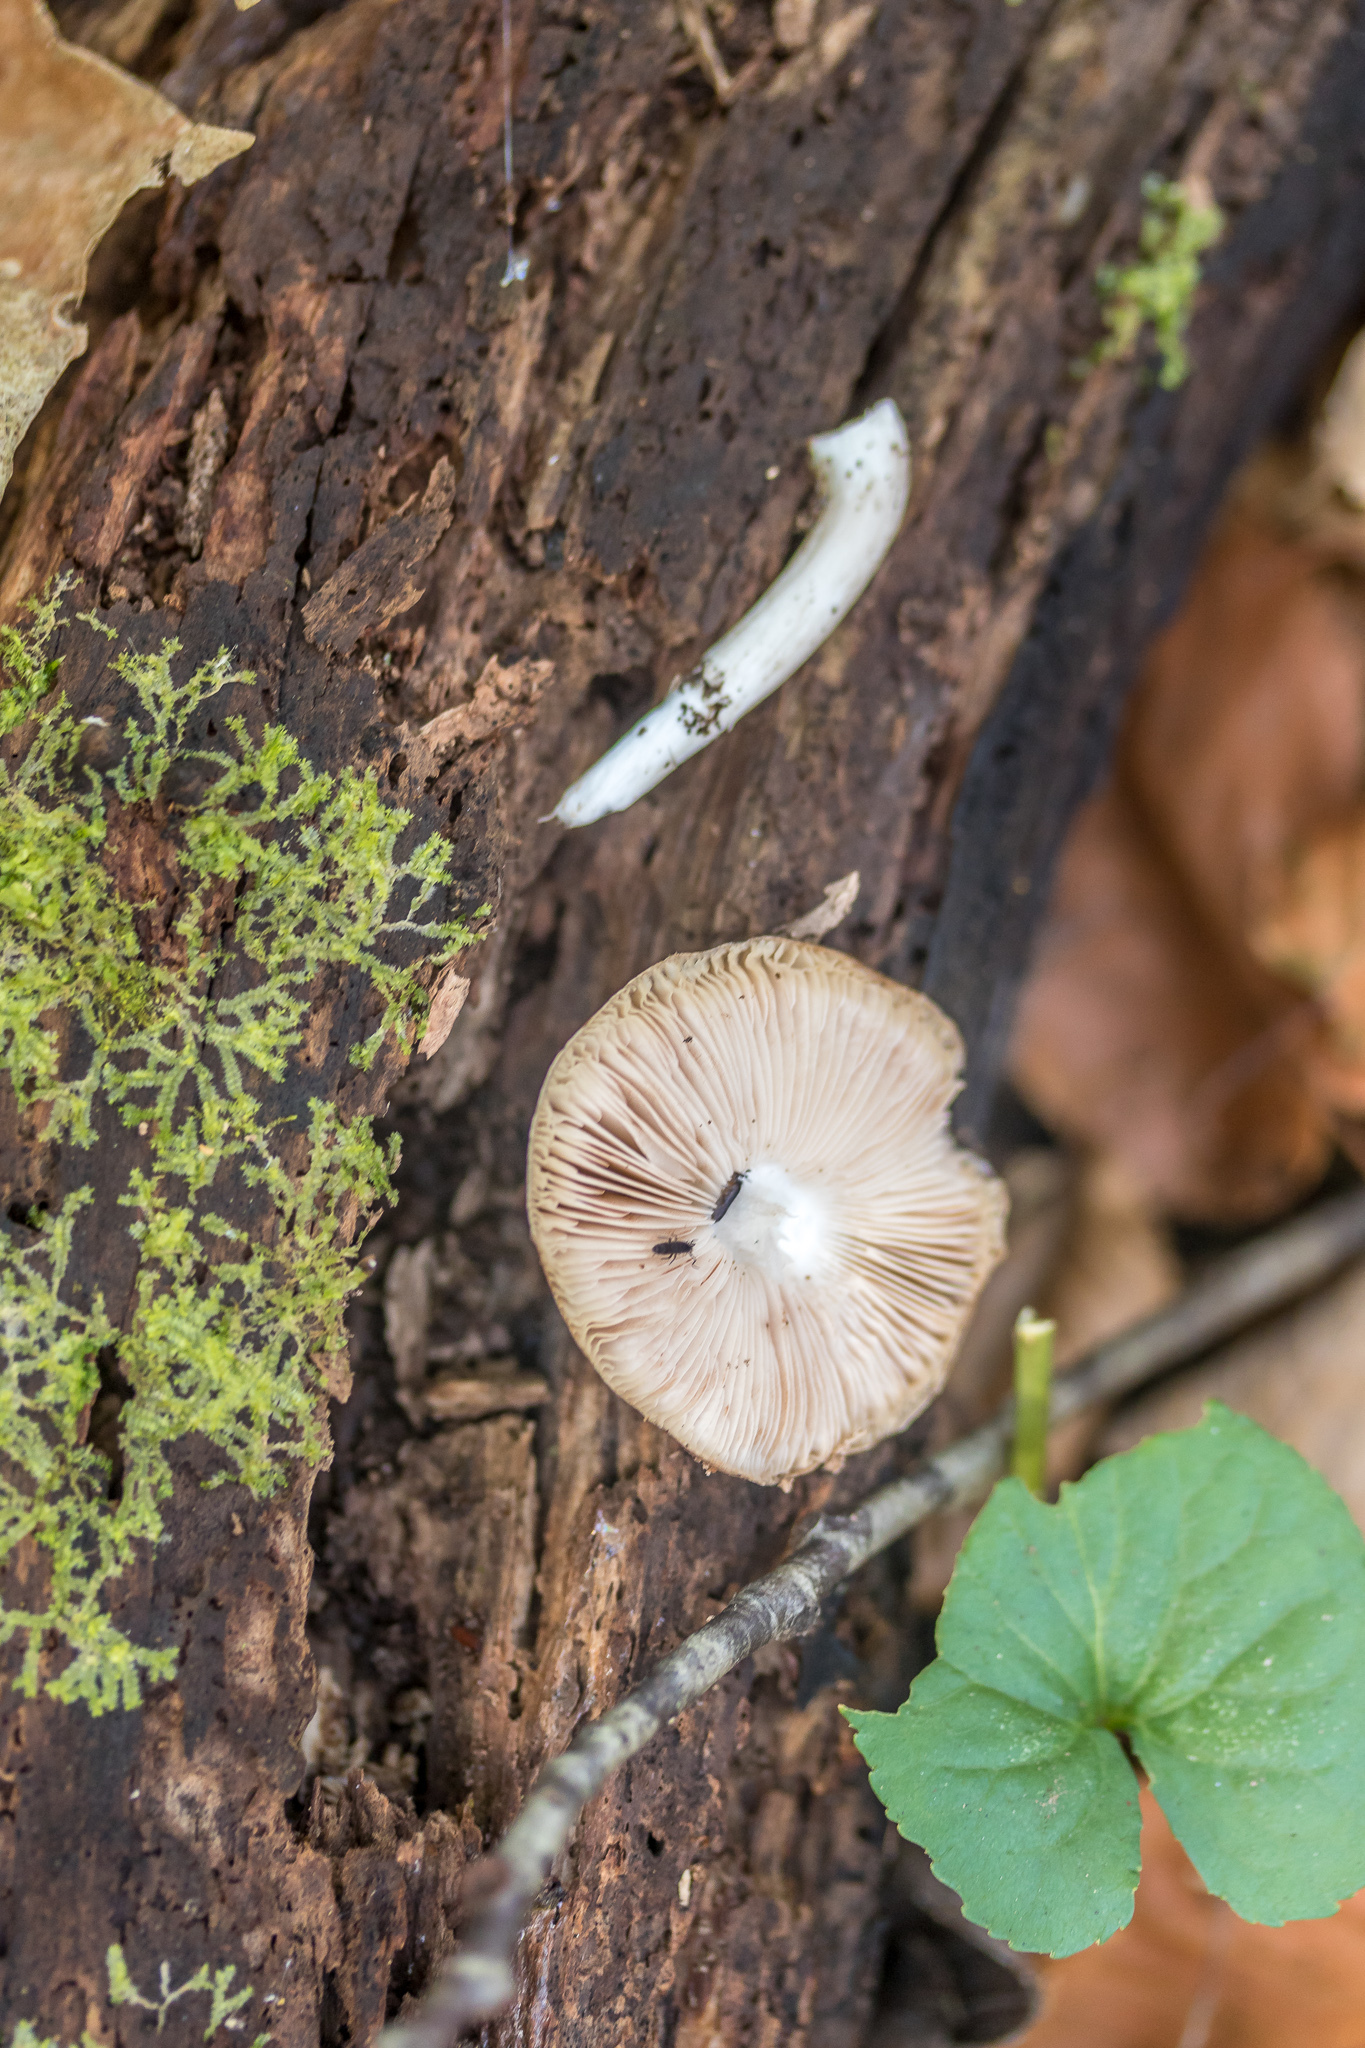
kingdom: Fungi
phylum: Basidiomycota
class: Agaricomycetes
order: Agaricales
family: Pluteaceae
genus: Pluteus
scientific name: Pluteus cervinus
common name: Deer shield
